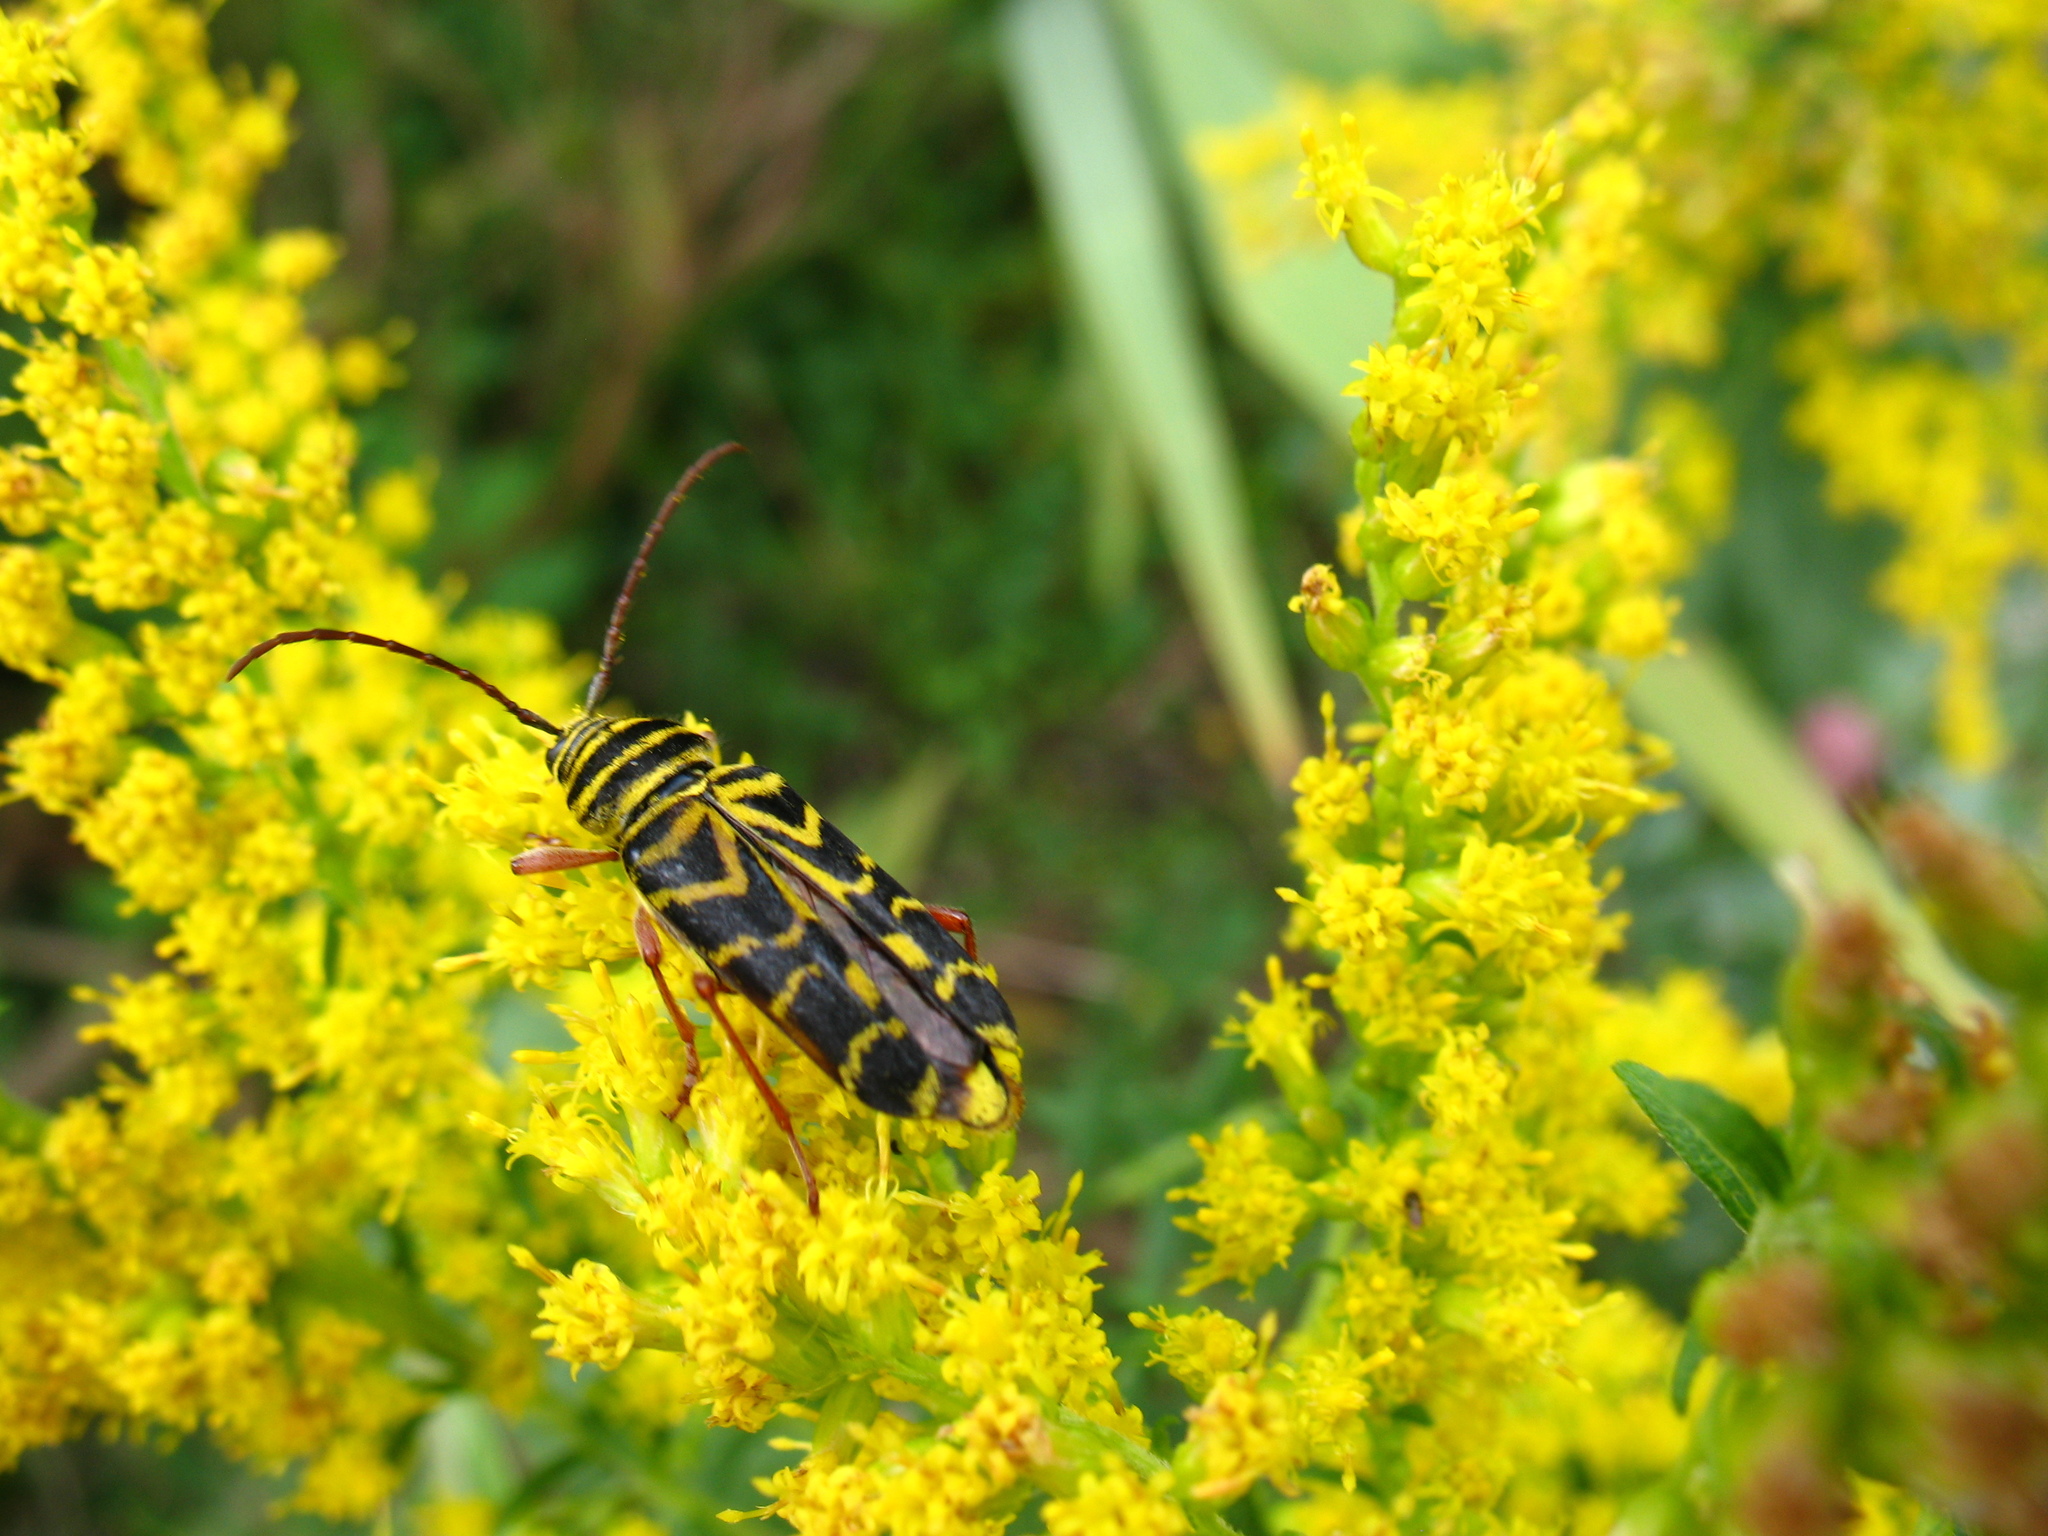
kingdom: Animalia
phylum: Arthropoda
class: Insecta
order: Coleoptera
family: Cerambycidae
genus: Megacyllene
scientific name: Megacyllene robiniae
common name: Locust borer
